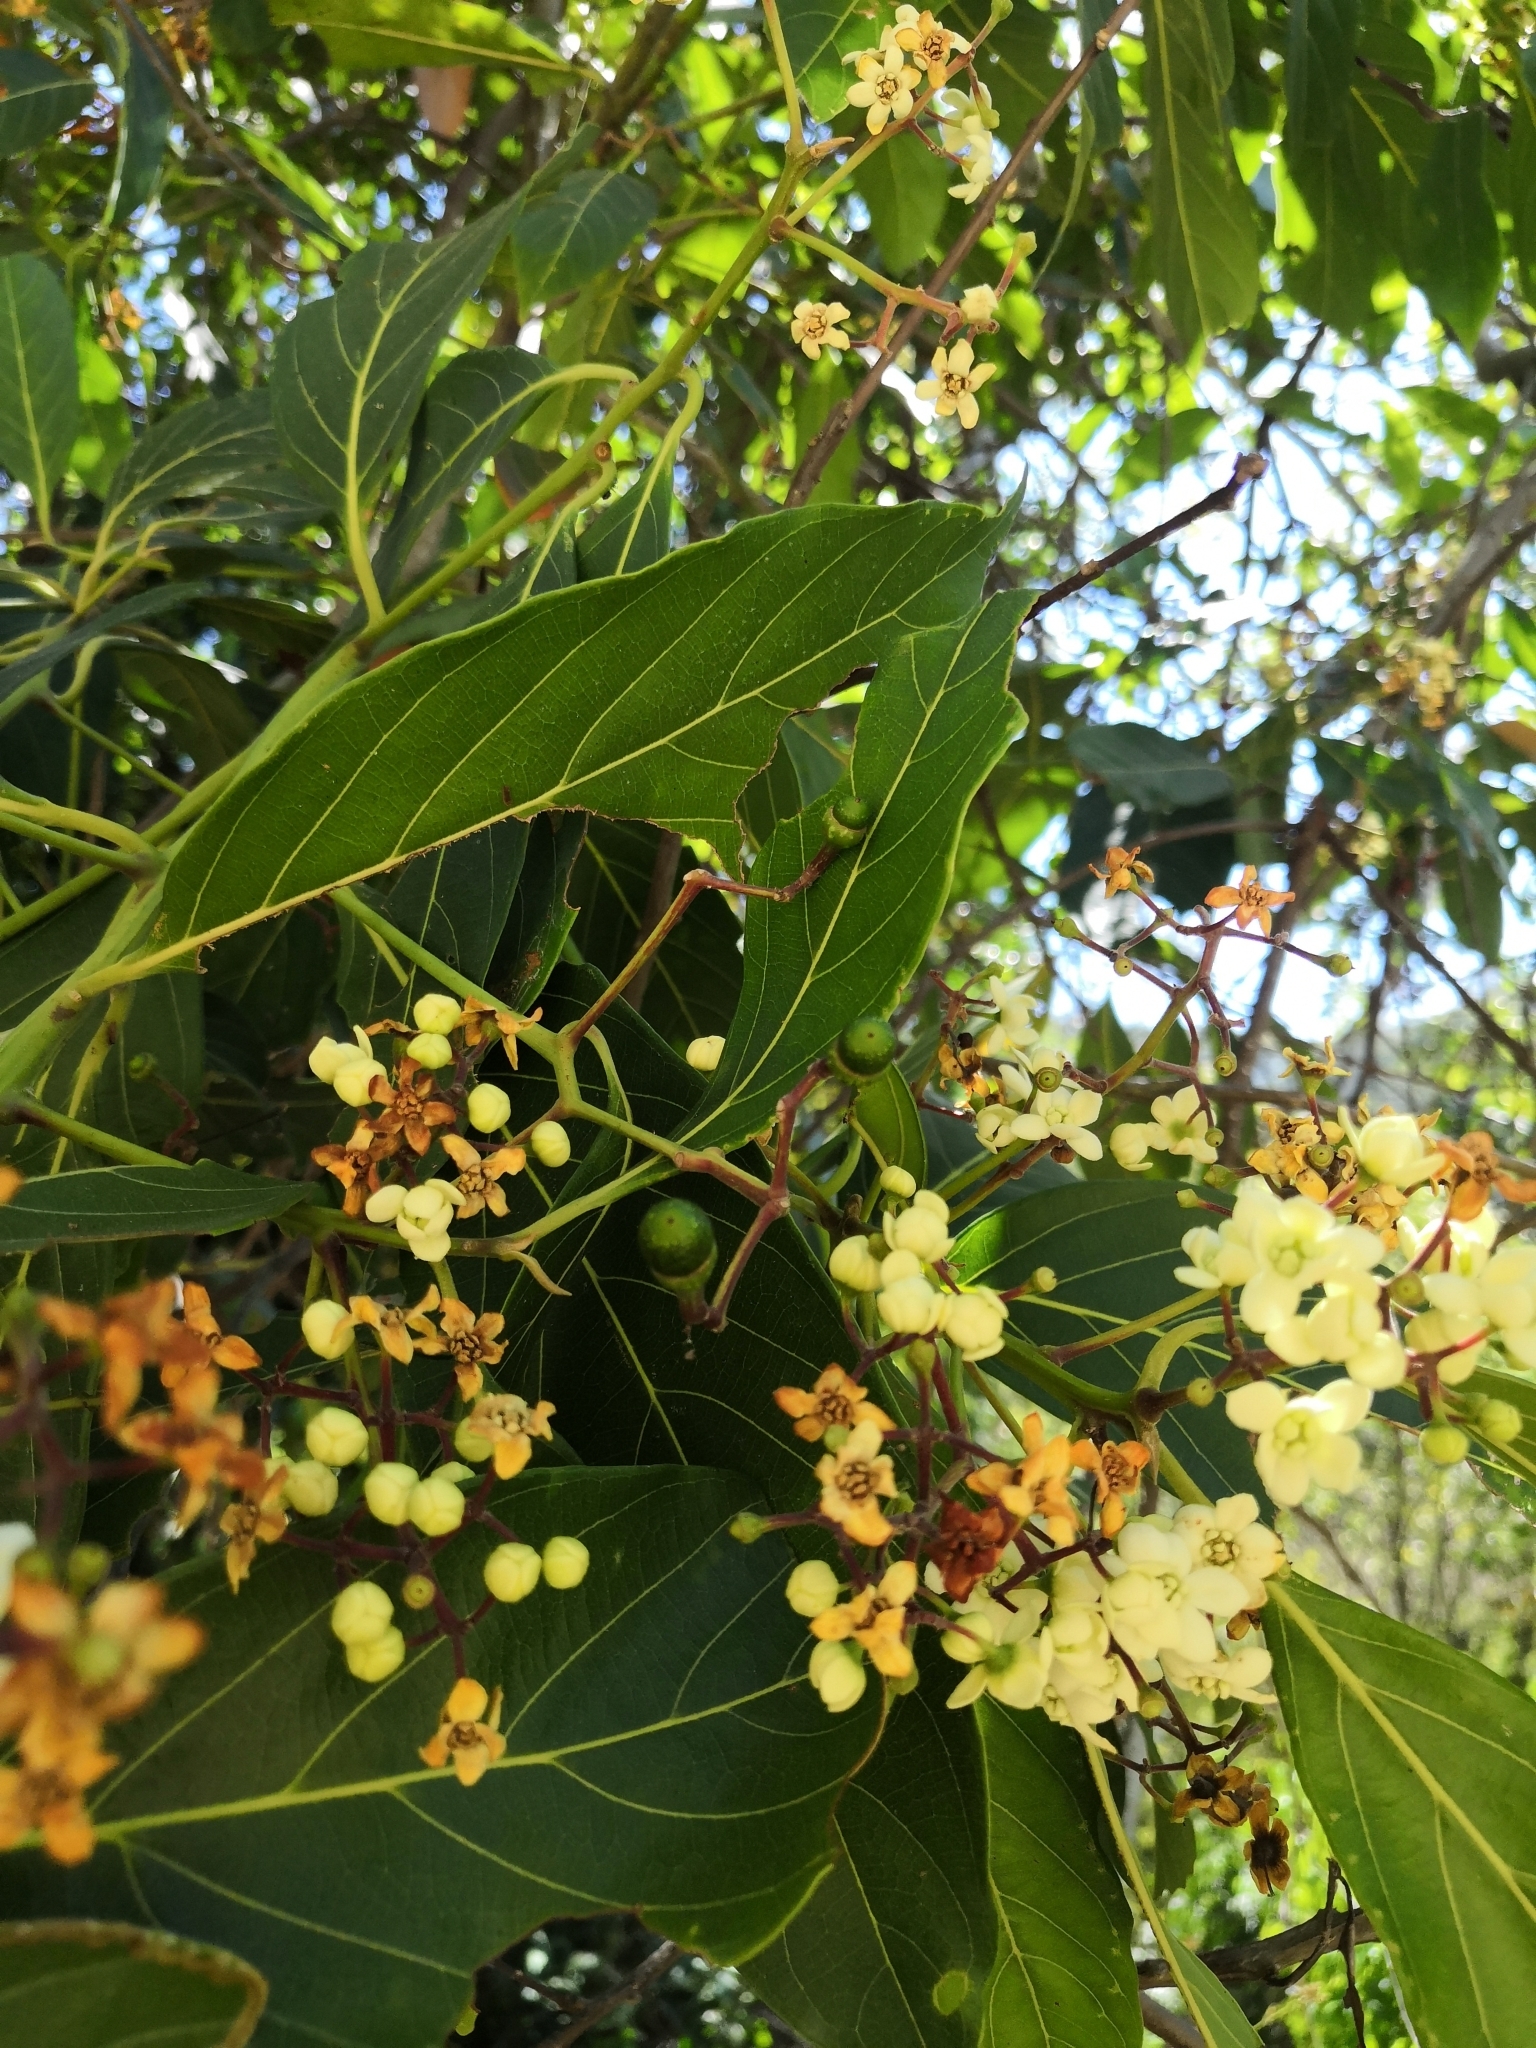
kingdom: Plantae
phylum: Tracheophyta
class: Magnoliopsida
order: Laurales
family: Lauraceae
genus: Nectandra
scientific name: Nectandra hihua
